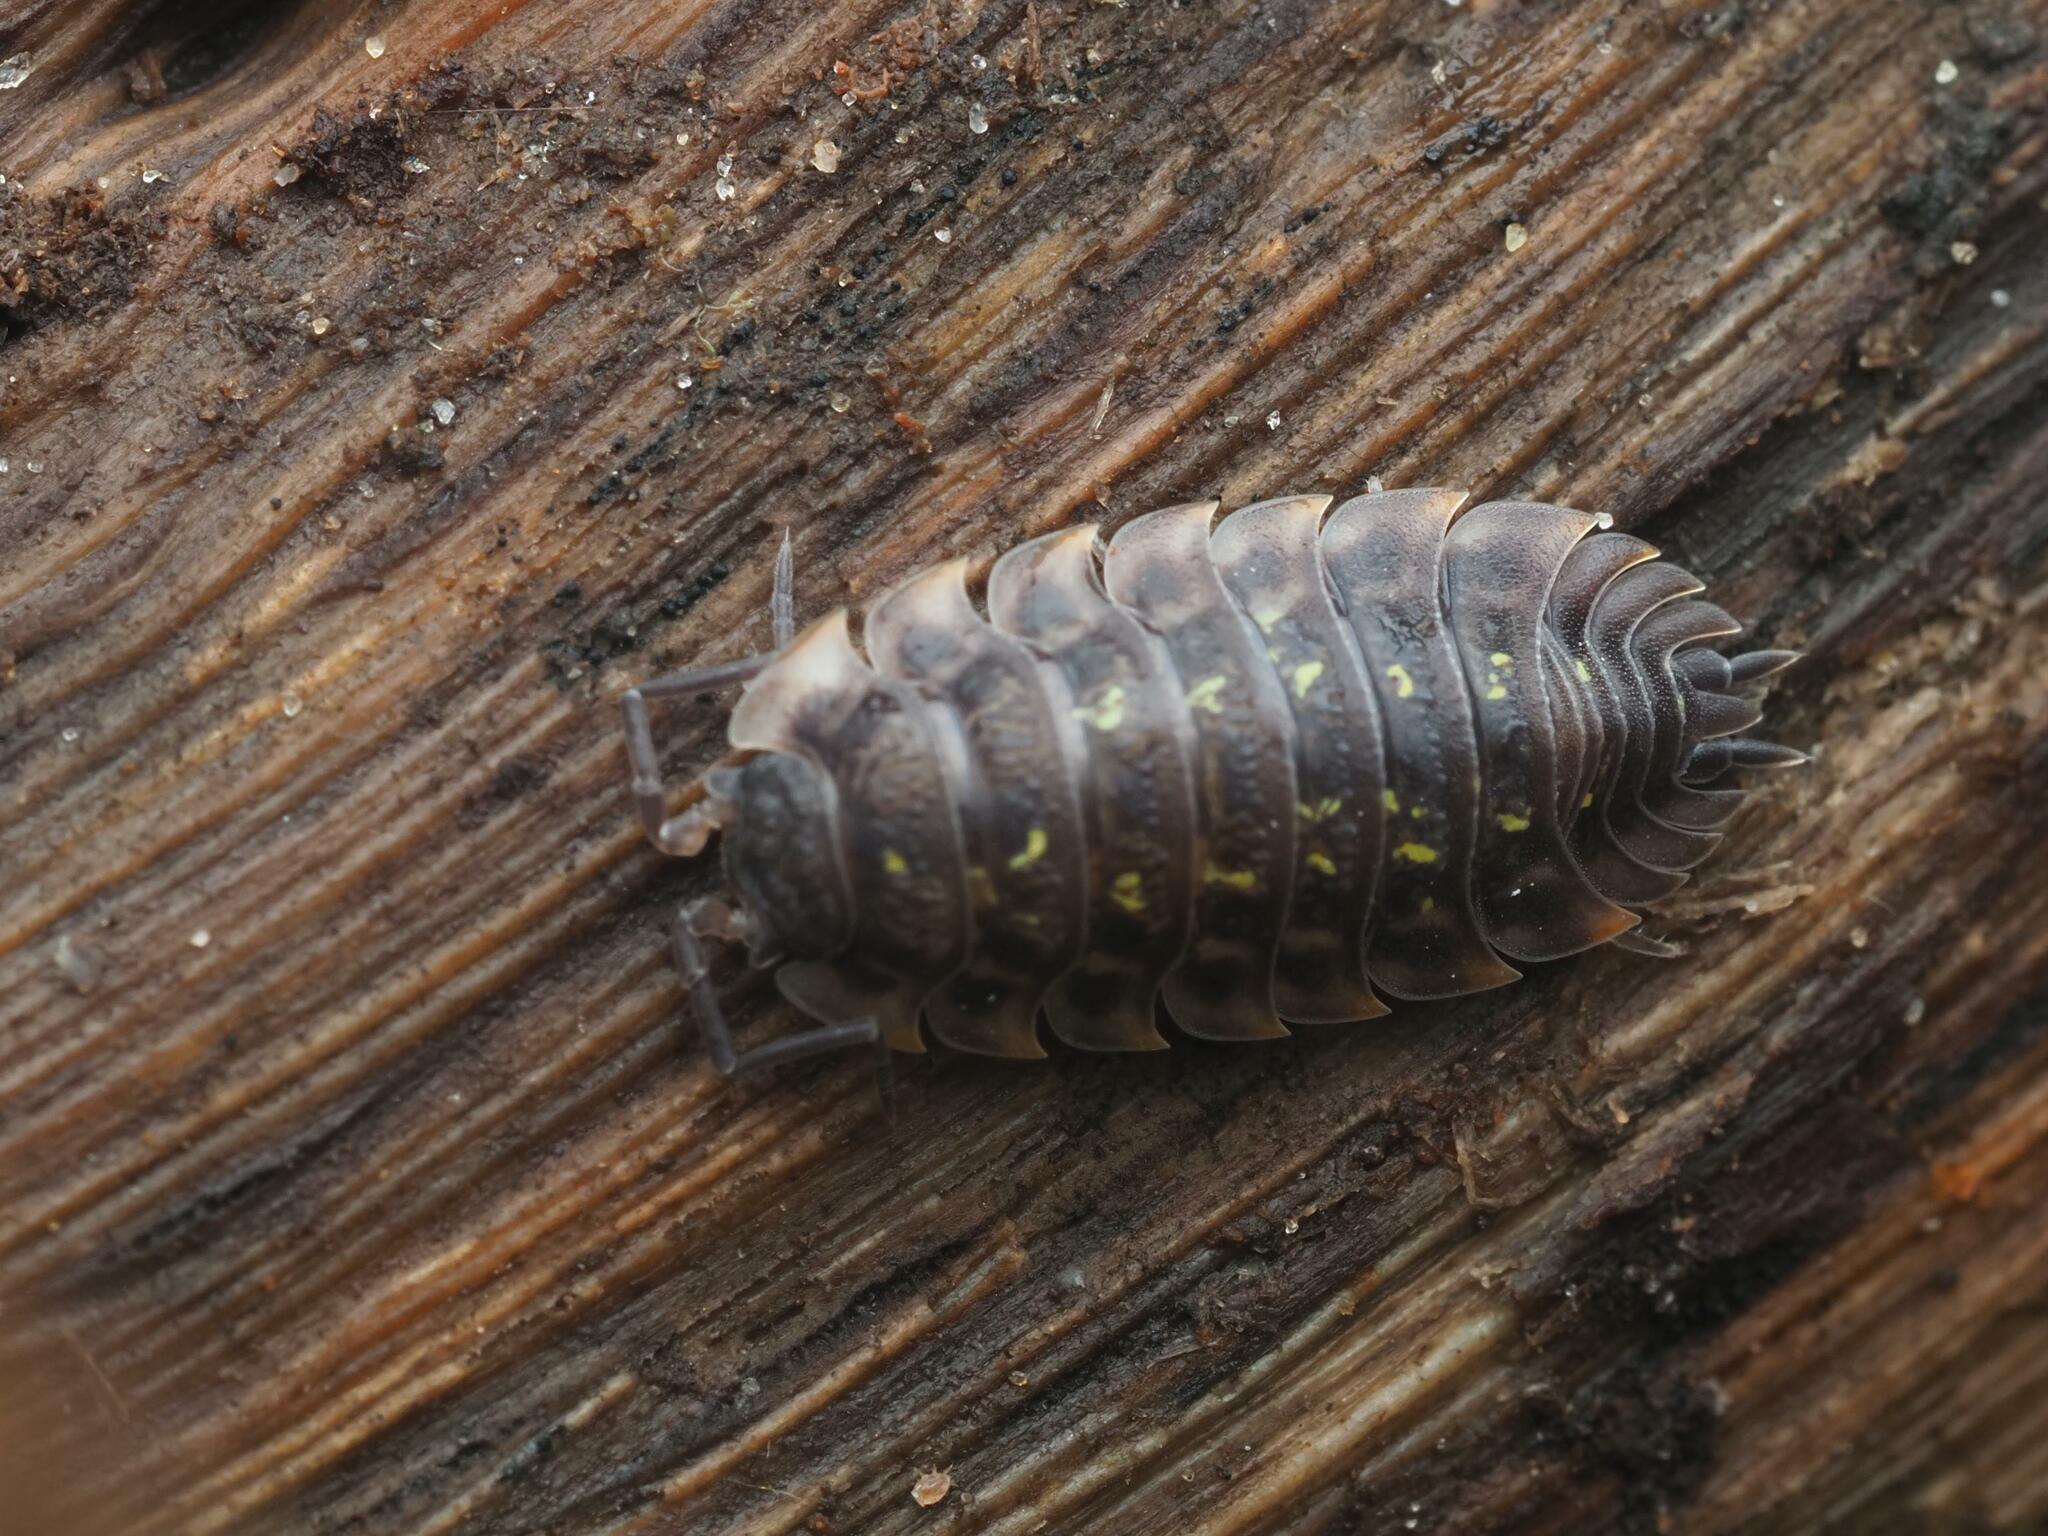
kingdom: Animalia
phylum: Arthropoda
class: Malacostraca
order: Isopoda
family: Oniscidae
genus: Oniscus
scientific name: Oniscus asellus
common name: Common shiny woodlouse
